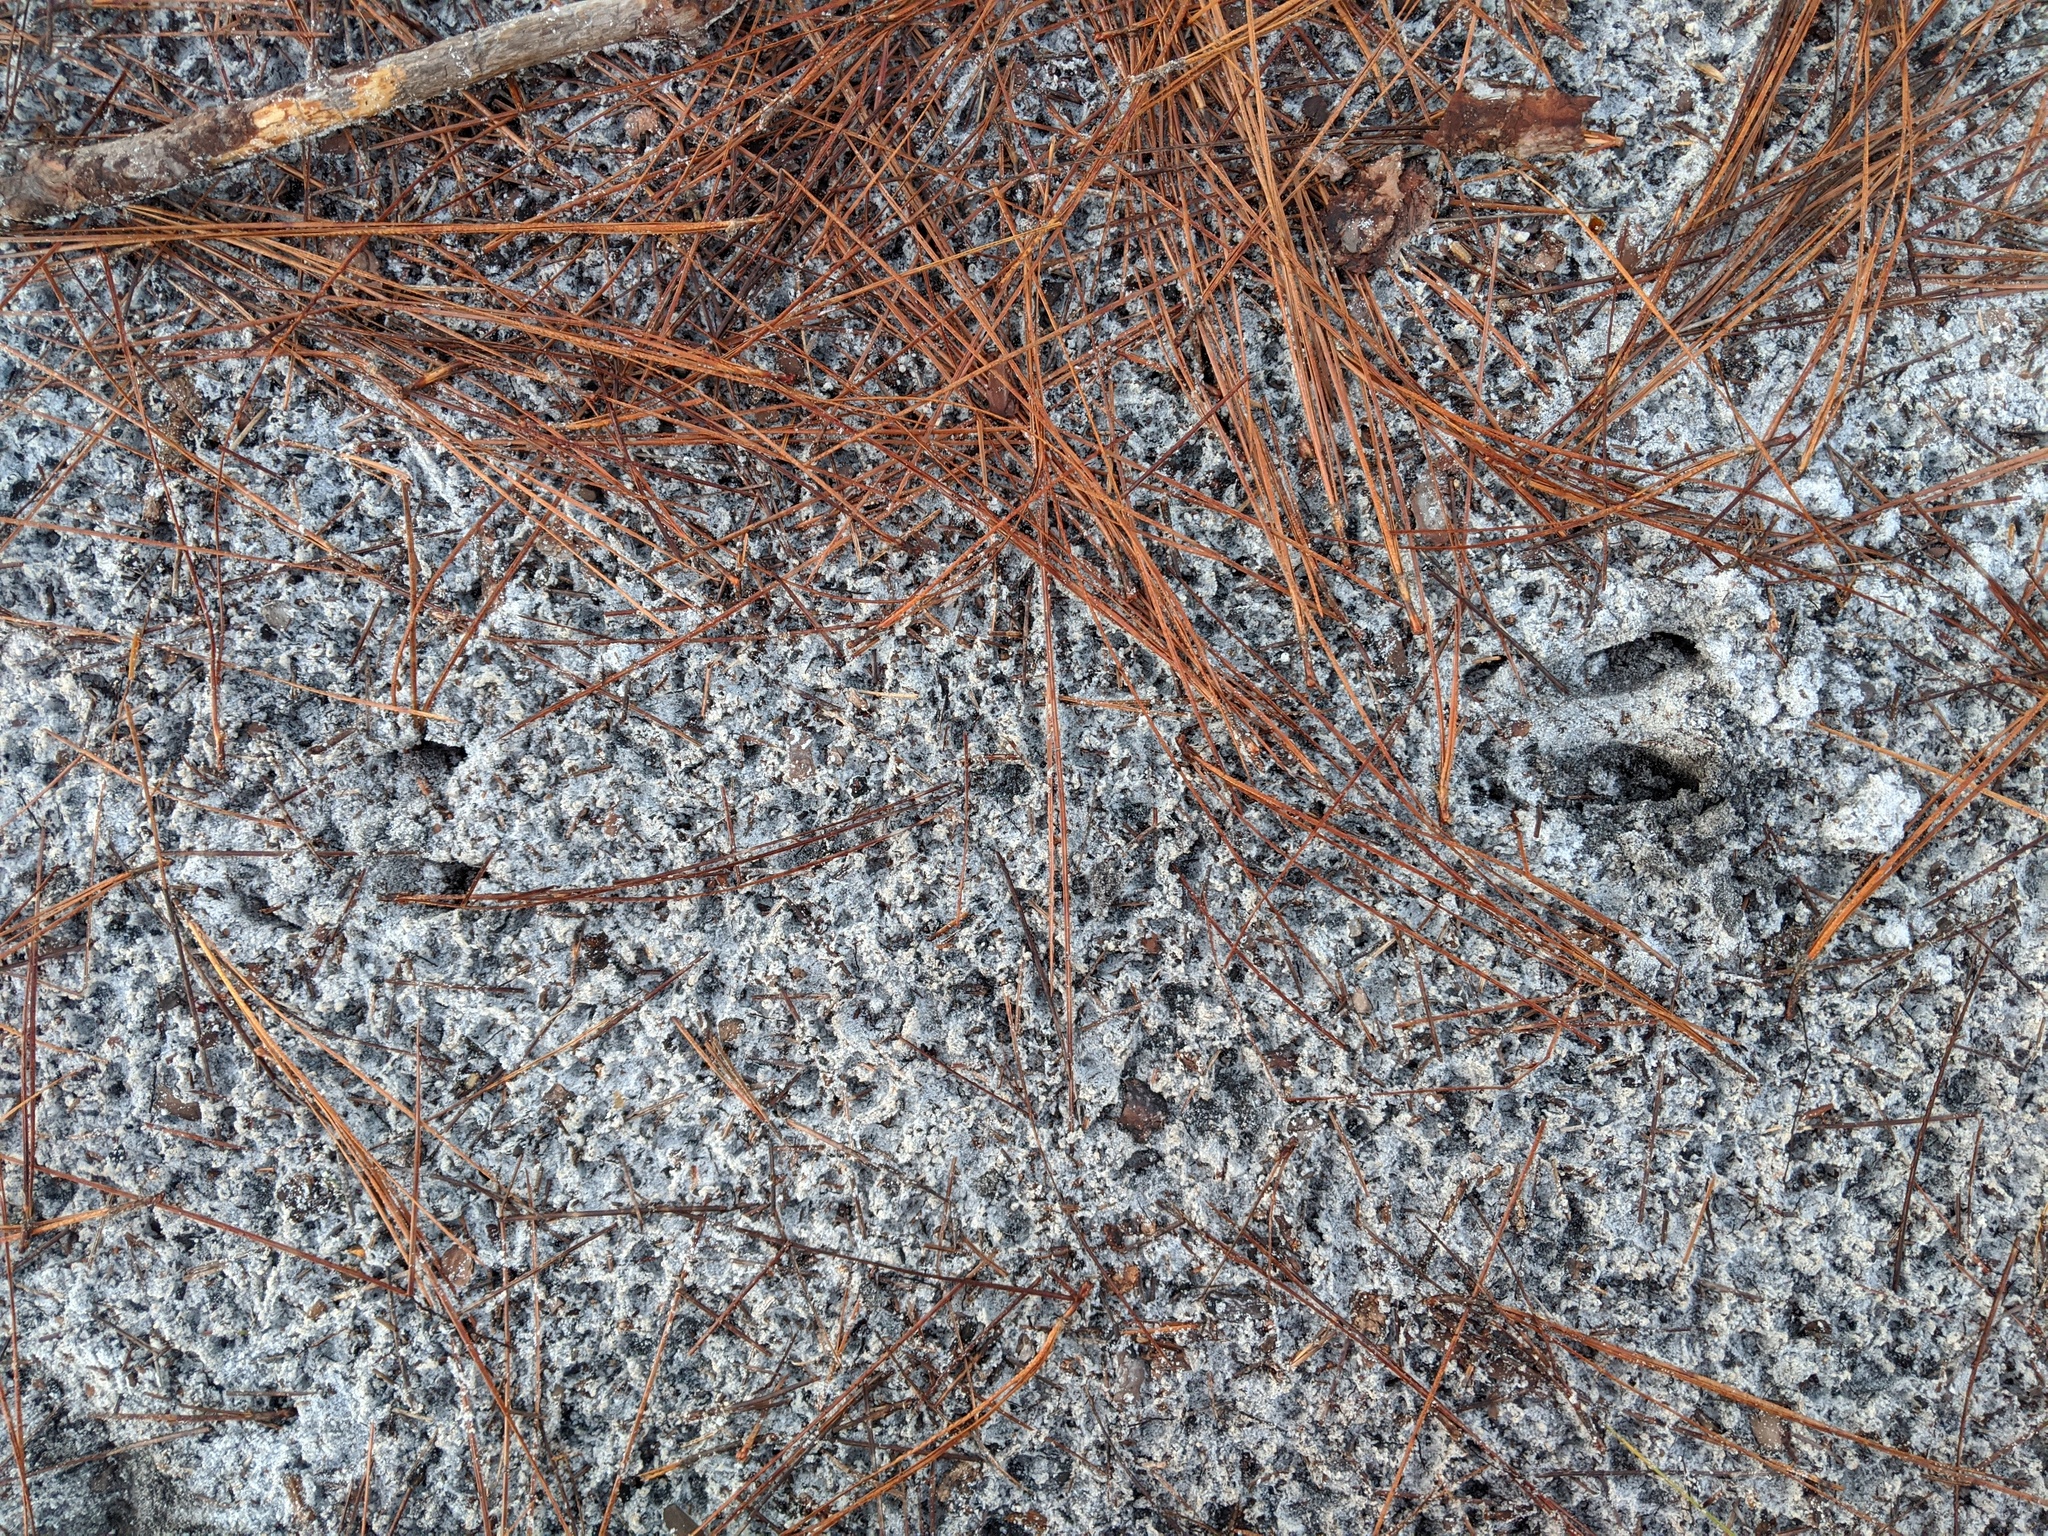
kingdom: Animalia
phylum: Chordata
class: Mammalia
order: Artiodactyla
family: Cervidae
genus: Odocoileus
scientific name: Odocoileus virginianus
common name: White-tailed deer
